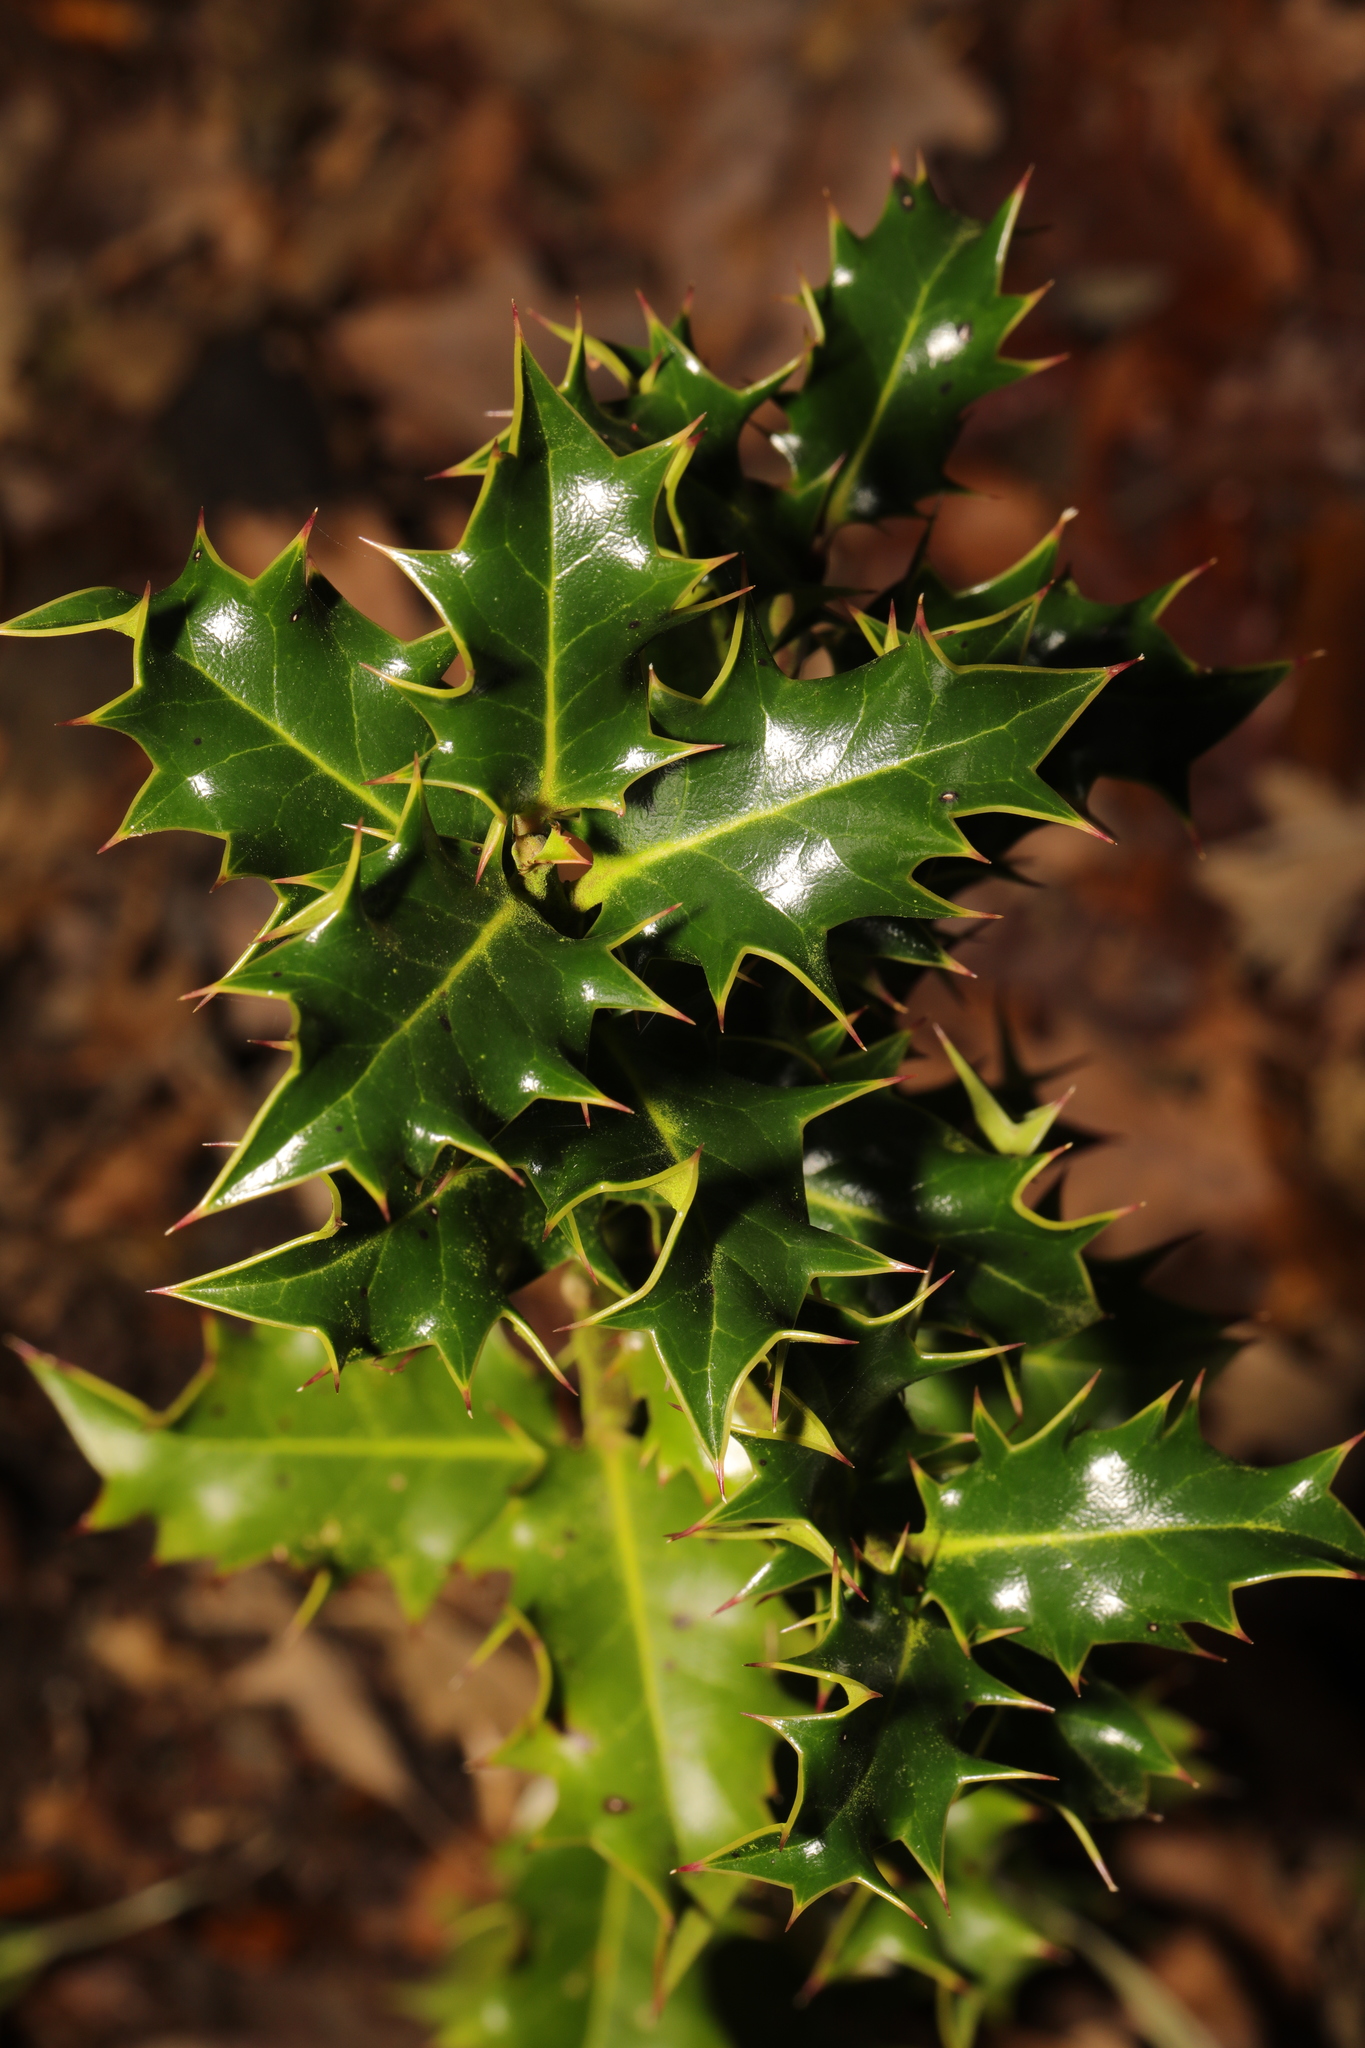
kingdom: Plantae
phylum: Tracheophyta
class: Magnoliopsida
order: Aquifoliales
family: Aquifoliaceae
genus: Ilex
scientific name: Ilex aquifolium
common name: English holly
